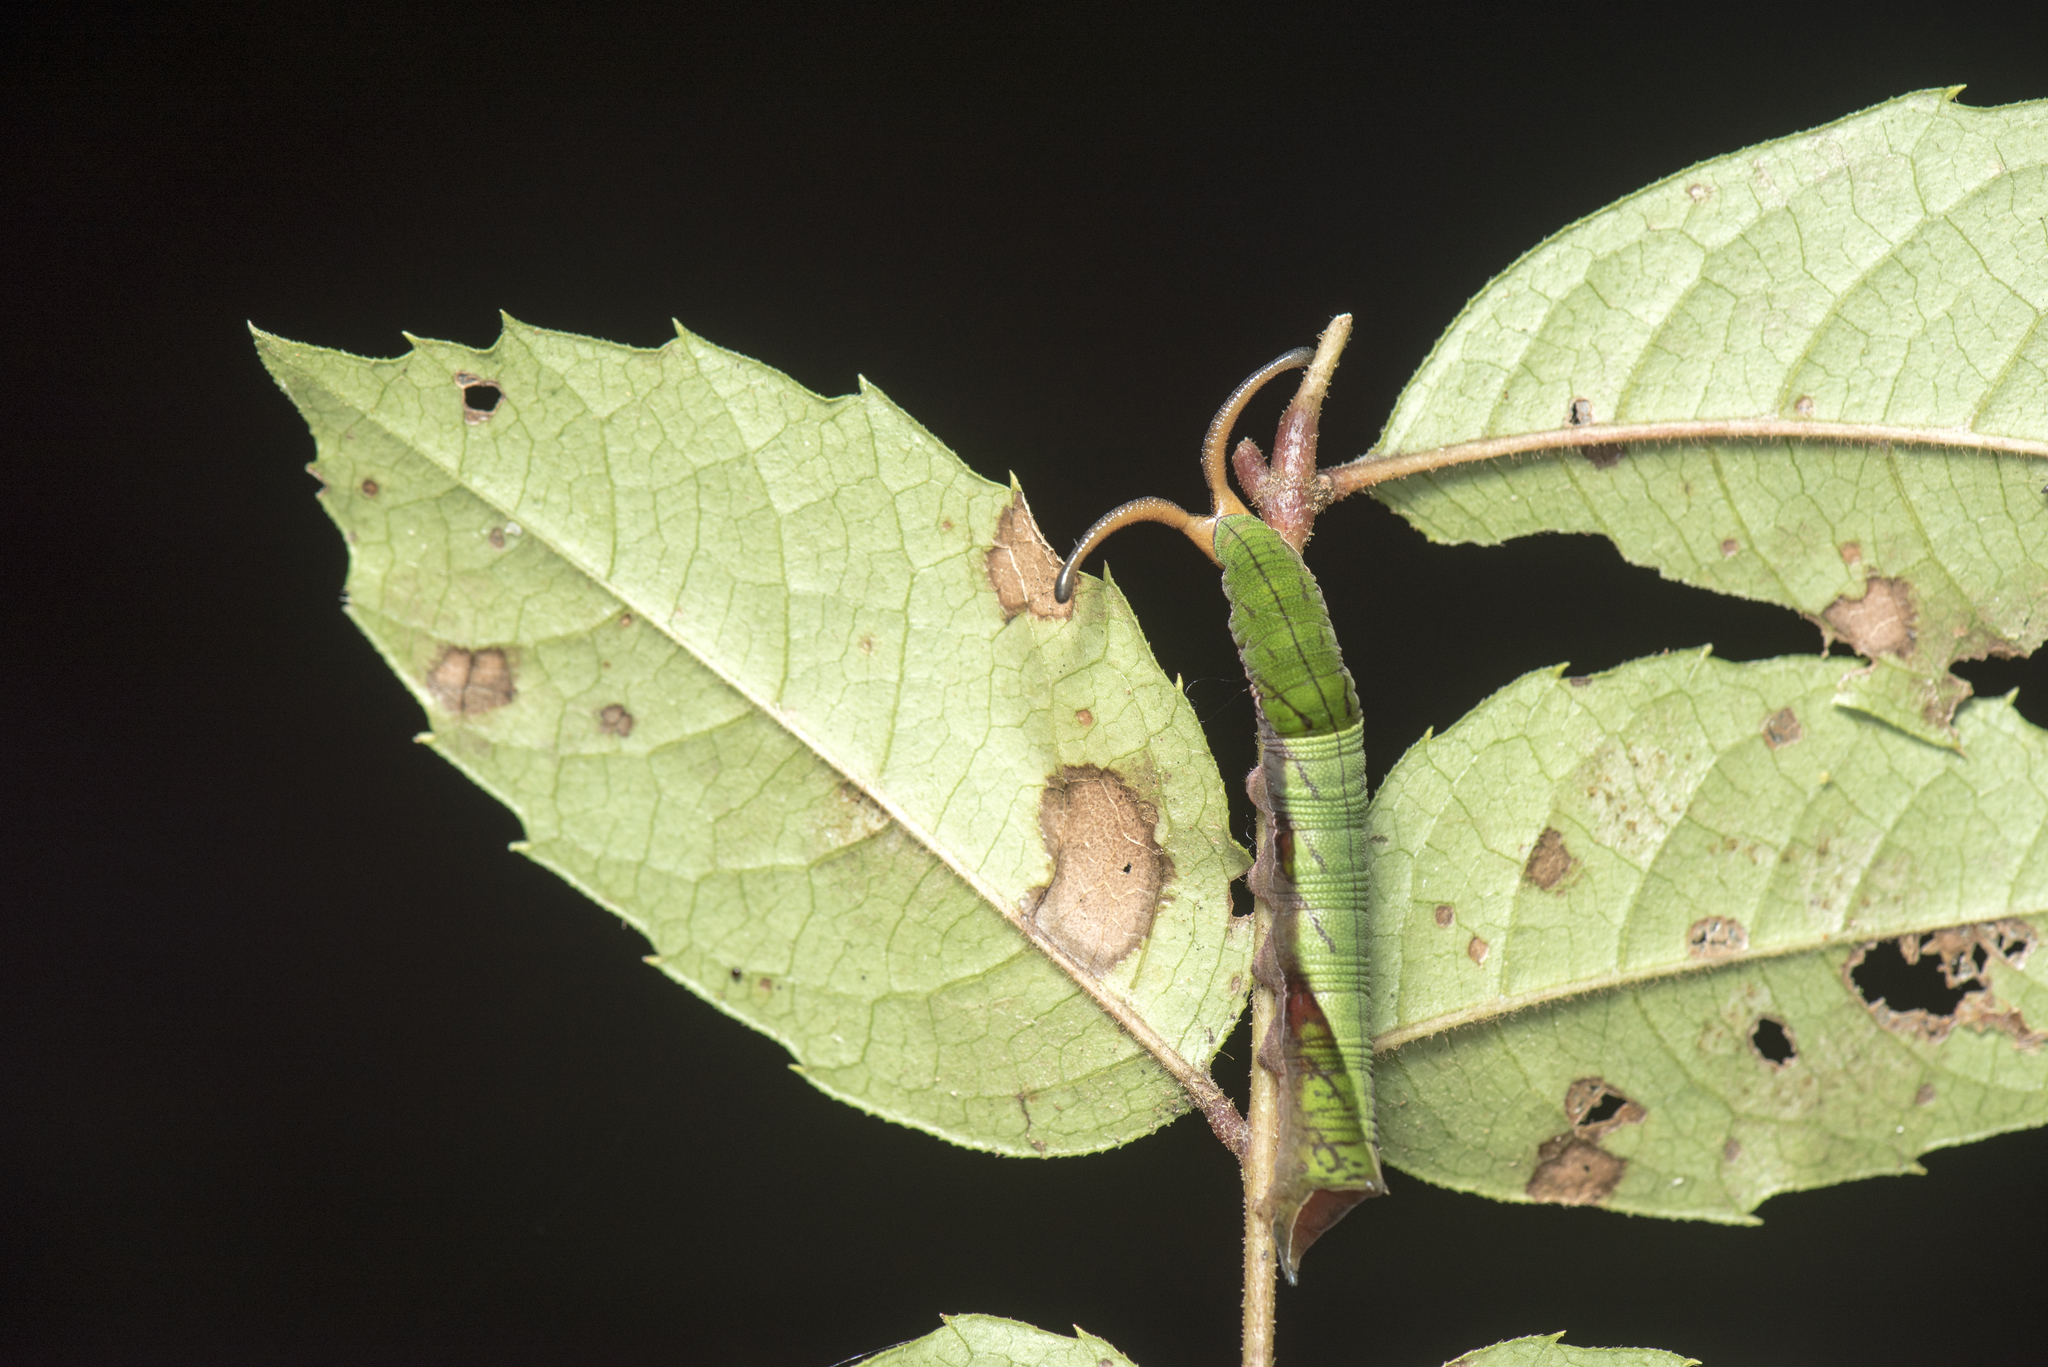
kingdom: Animalia
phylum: Arthropoda
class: Insecta
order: Lepidoptera
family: Nymphalidae
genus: Dichorragia
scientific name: Dichorragia nesimachus
